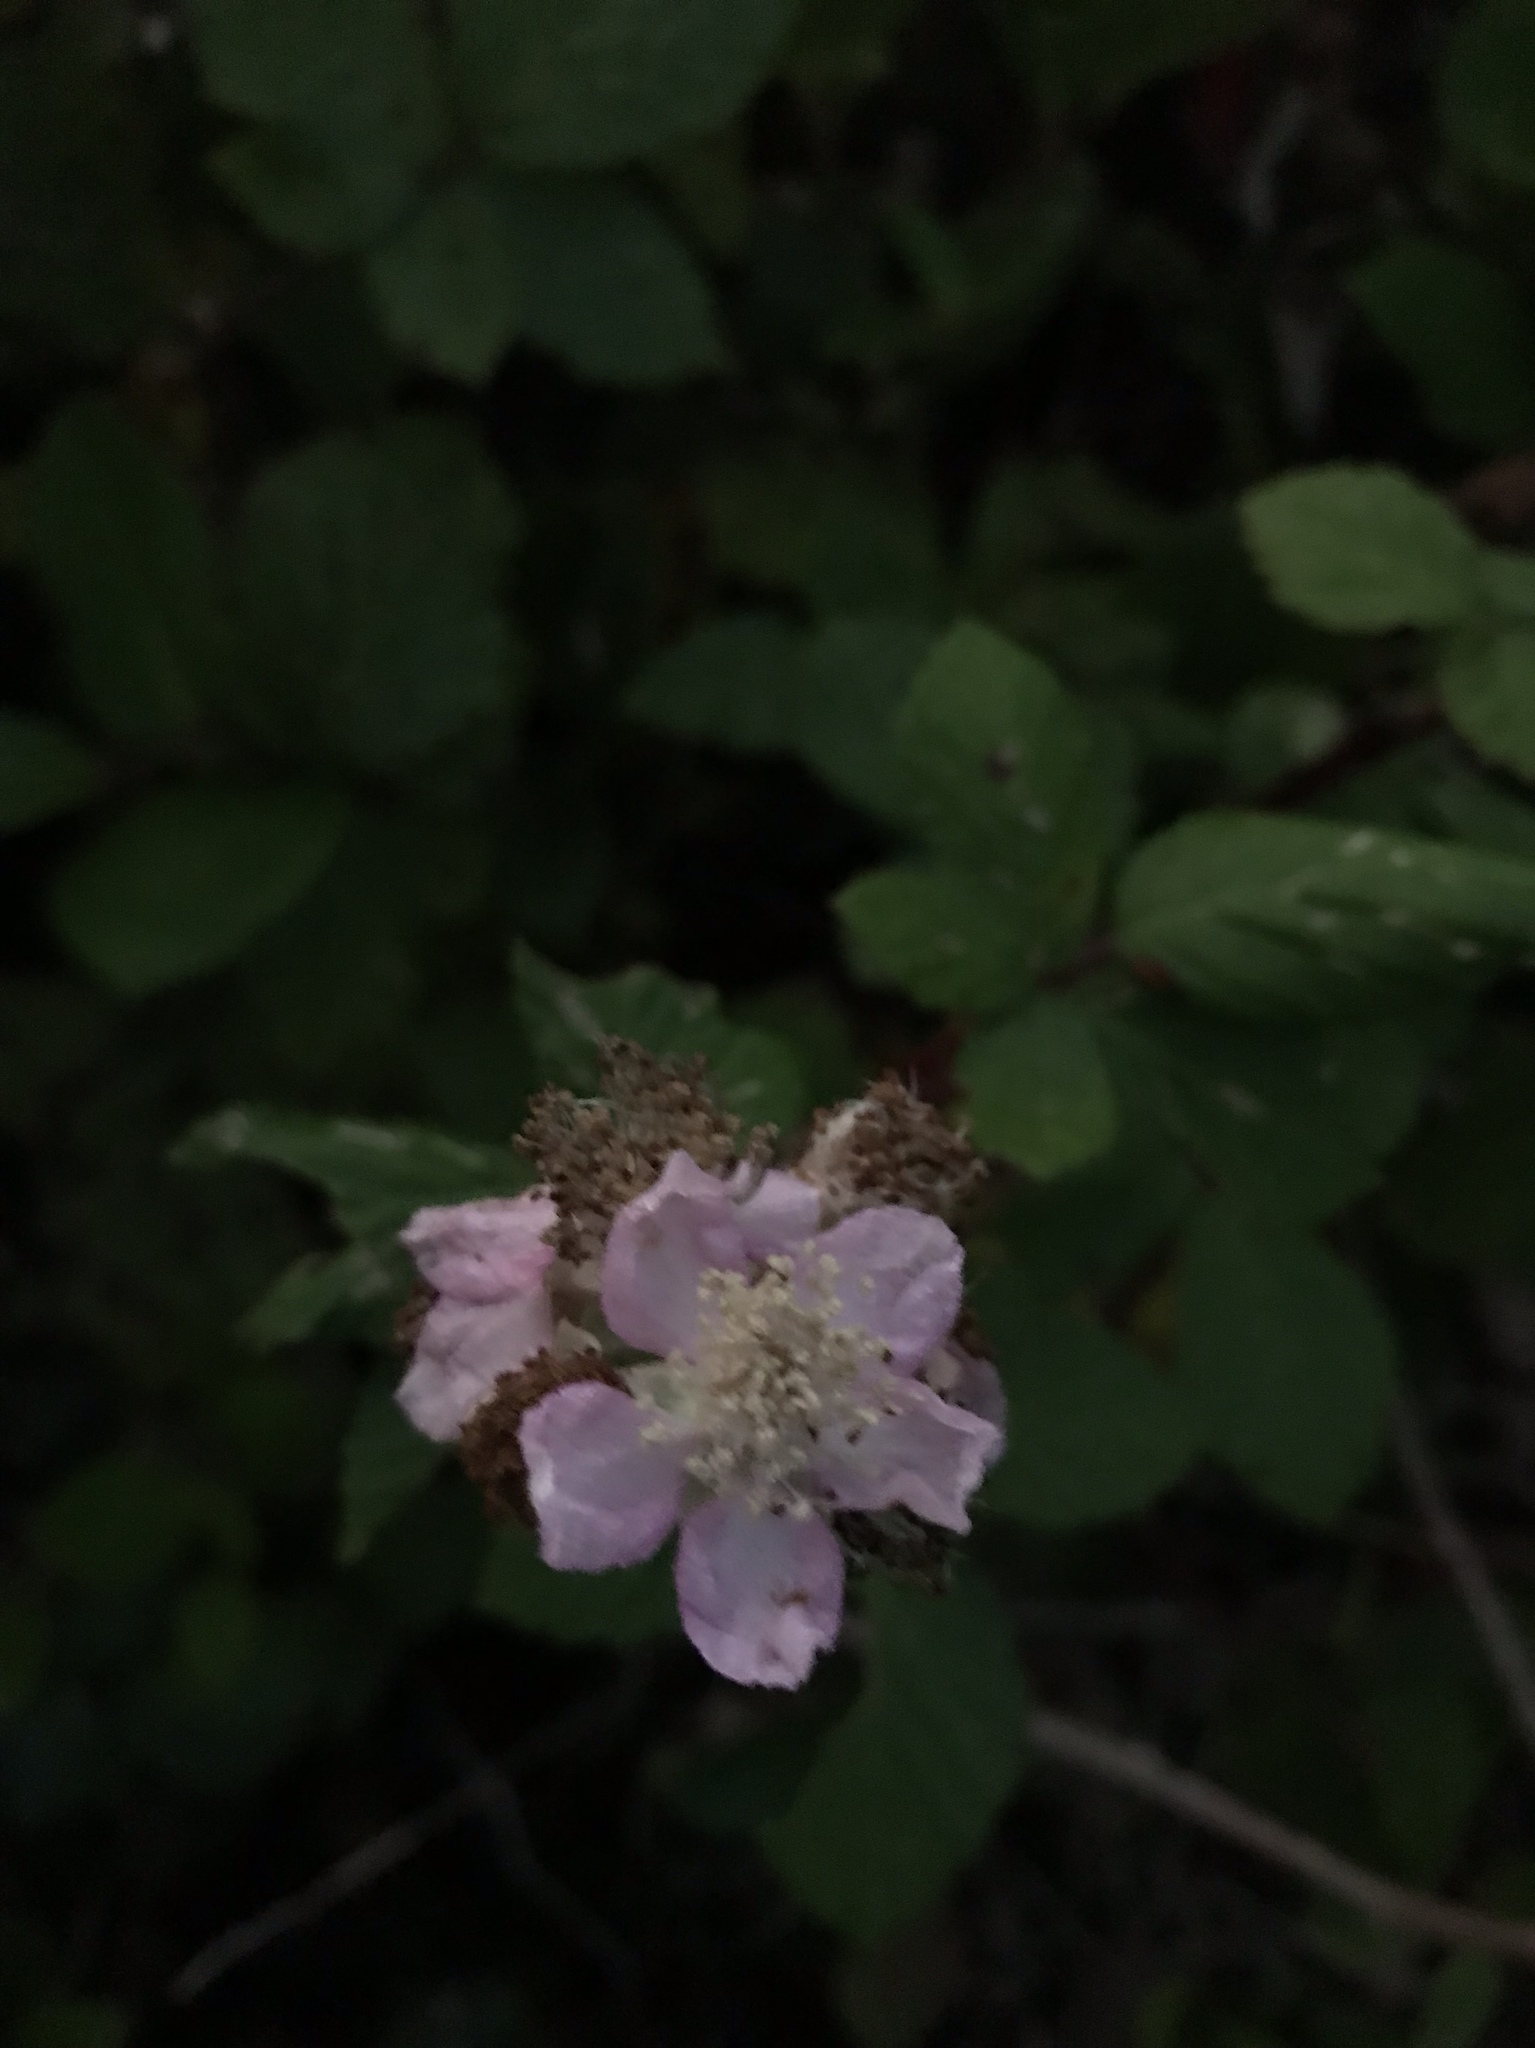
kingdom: Plantae
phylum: Tracheophyta
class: Magnoliopsida
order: Rosales
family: Rosaceae
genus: Rubus
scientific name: Rubus armeniacus
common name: Himalayan blackberry
